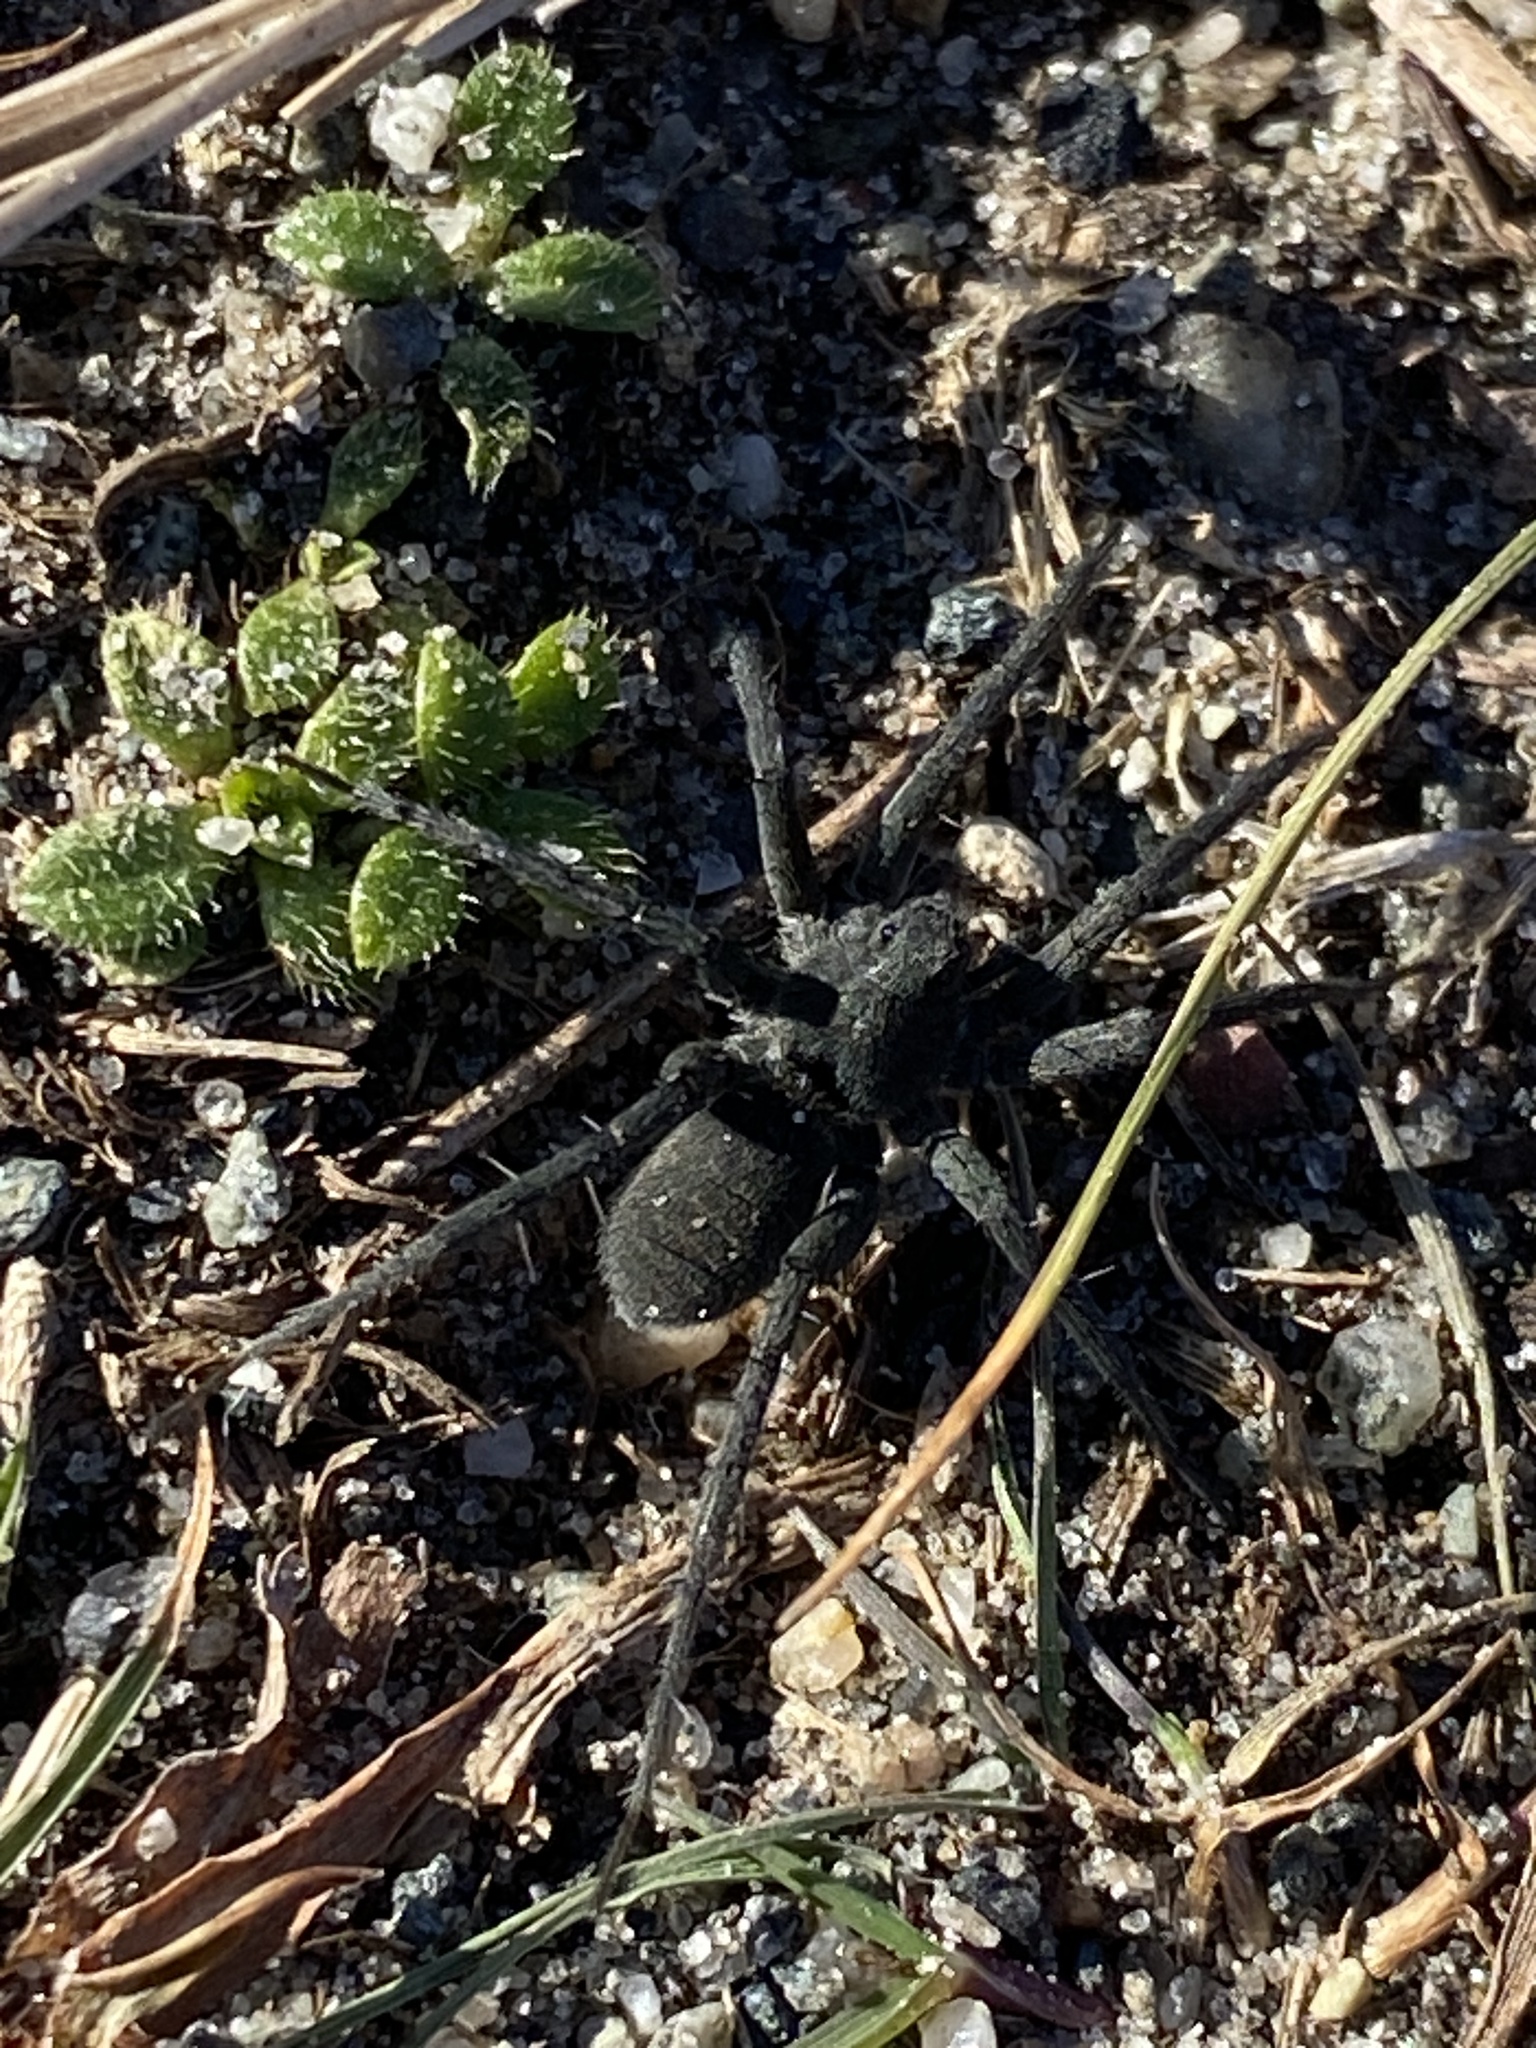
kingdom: Animalia
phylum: Arthropoda
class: Arachnida
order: Araneae
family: Lycosidae
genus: Pardosa
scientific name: Pardosa lapidicina
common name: Stone spider
